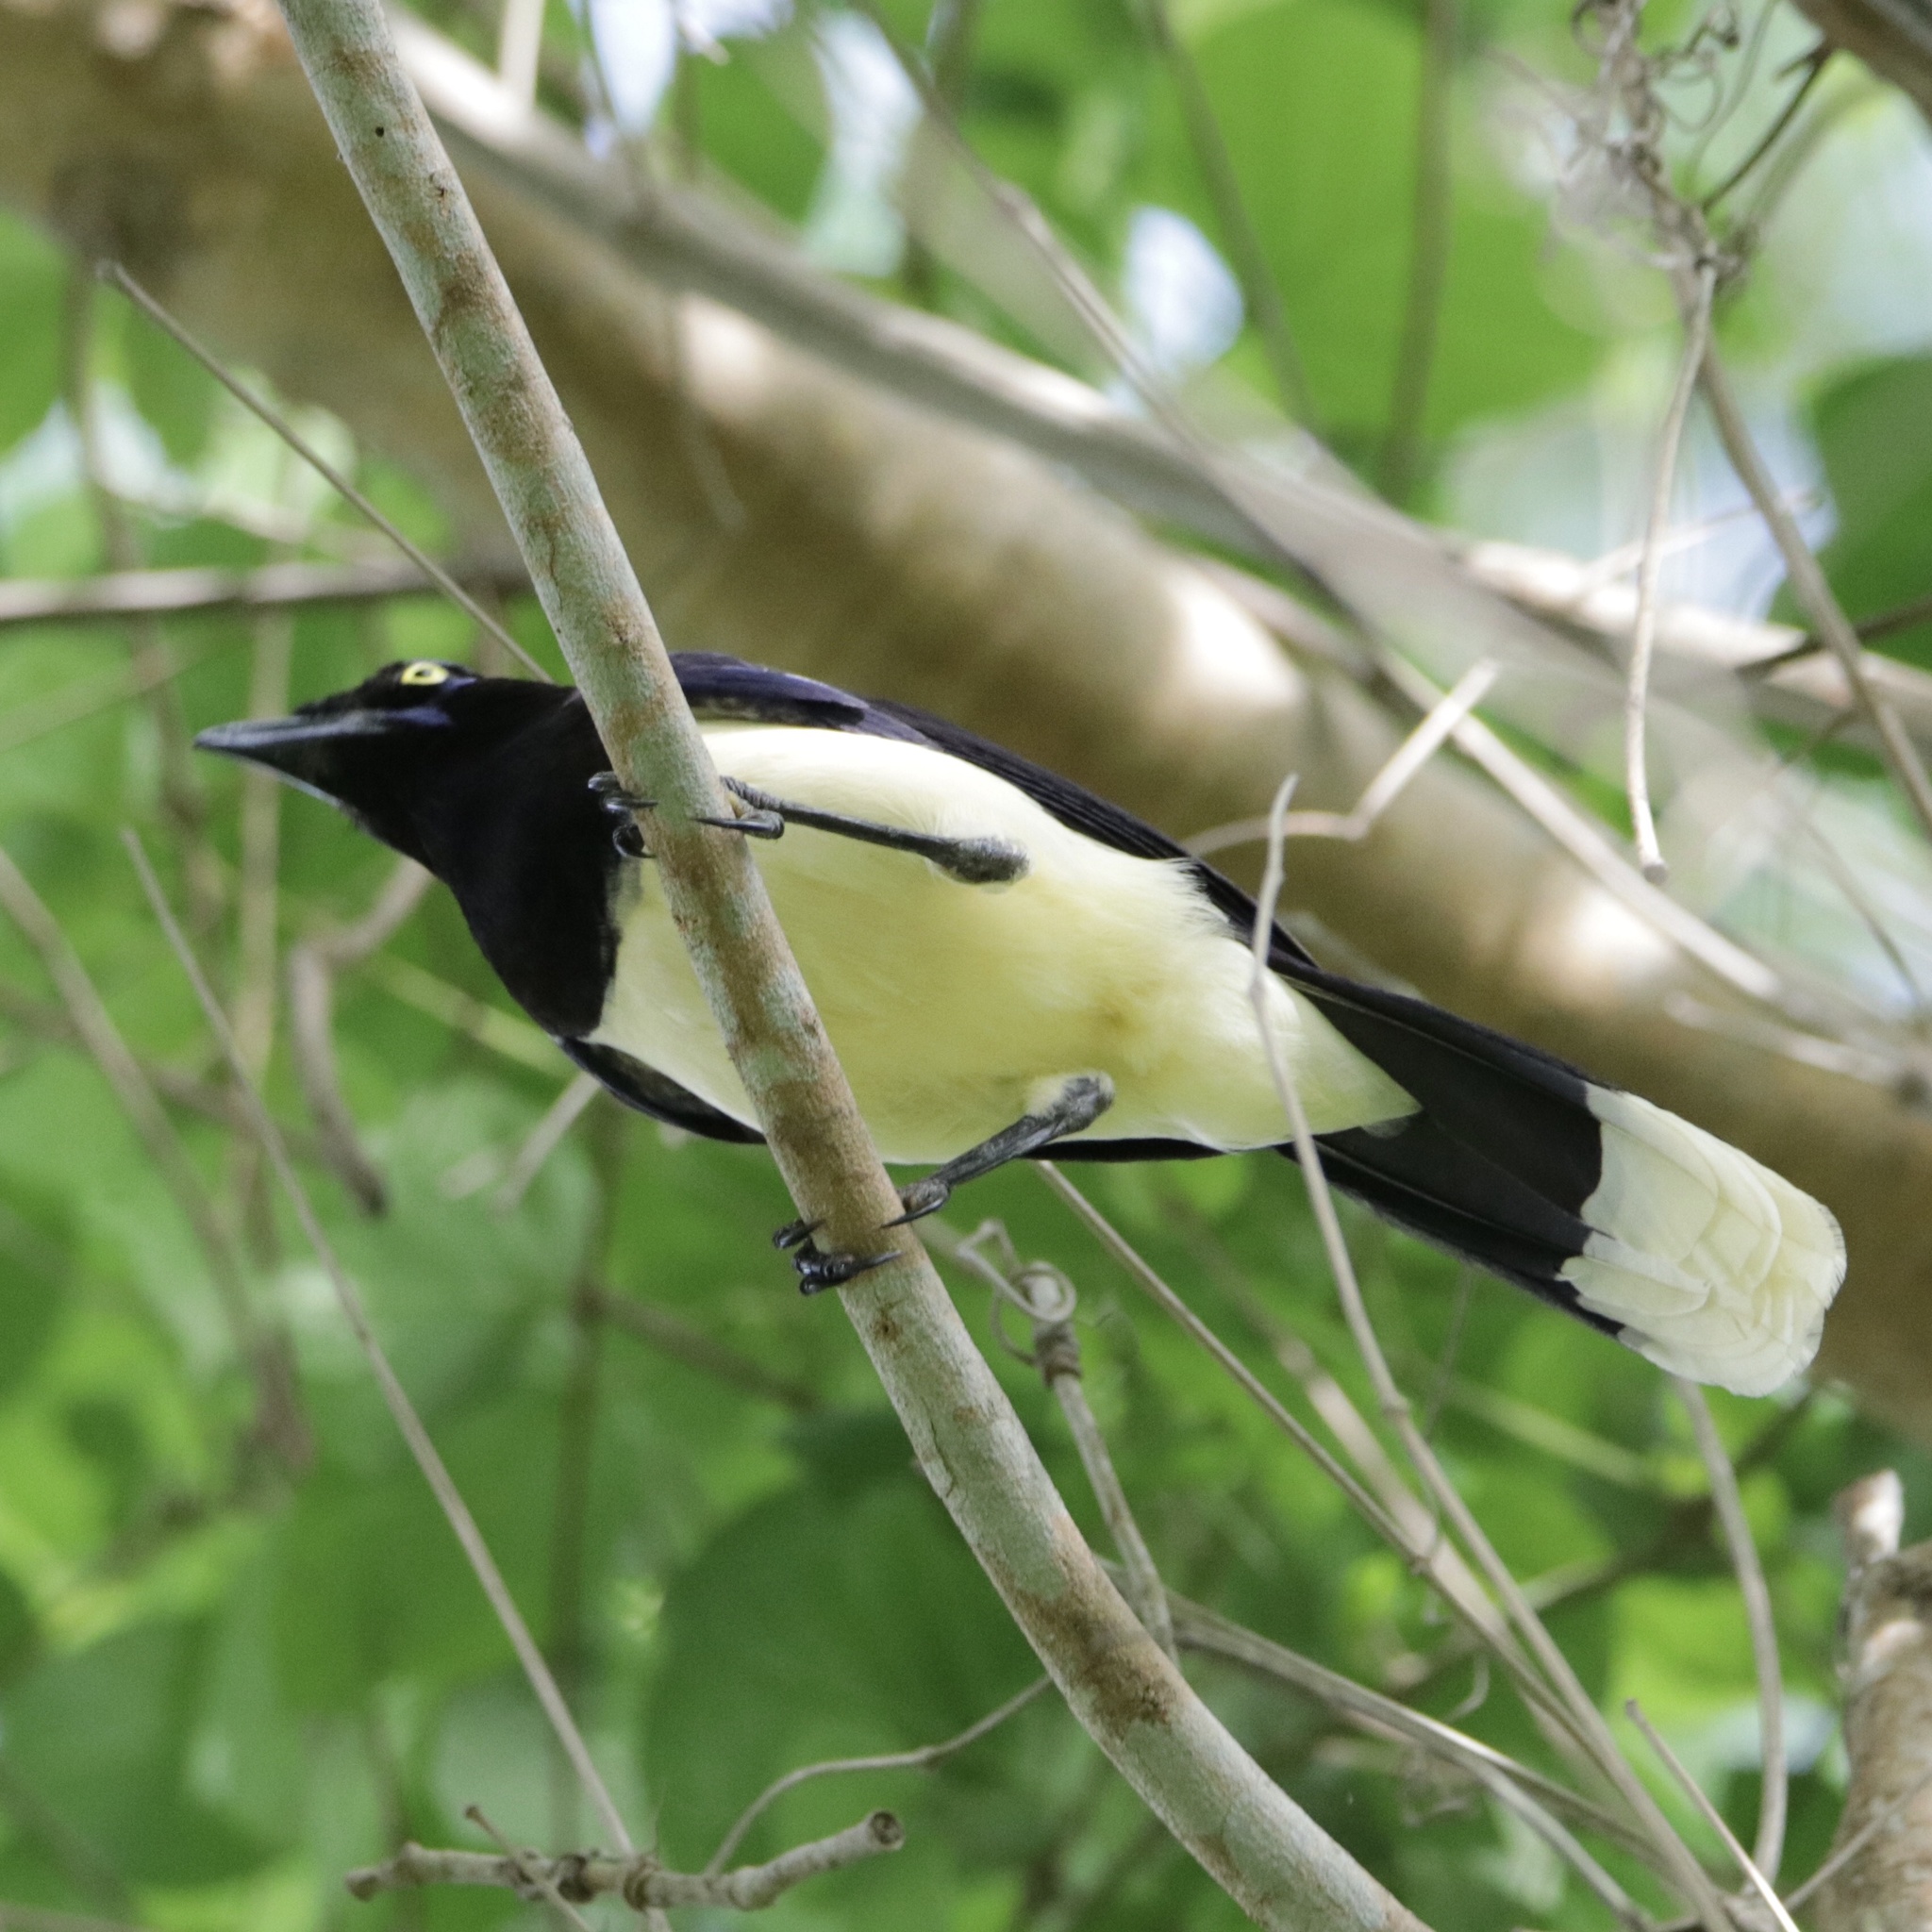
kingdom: Animalia
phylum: Chordata
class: Aves
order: Passeriformes
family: Corvidae
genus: Cyanocorax
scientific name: Cyanocorax affinis
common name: Black-chested jay
